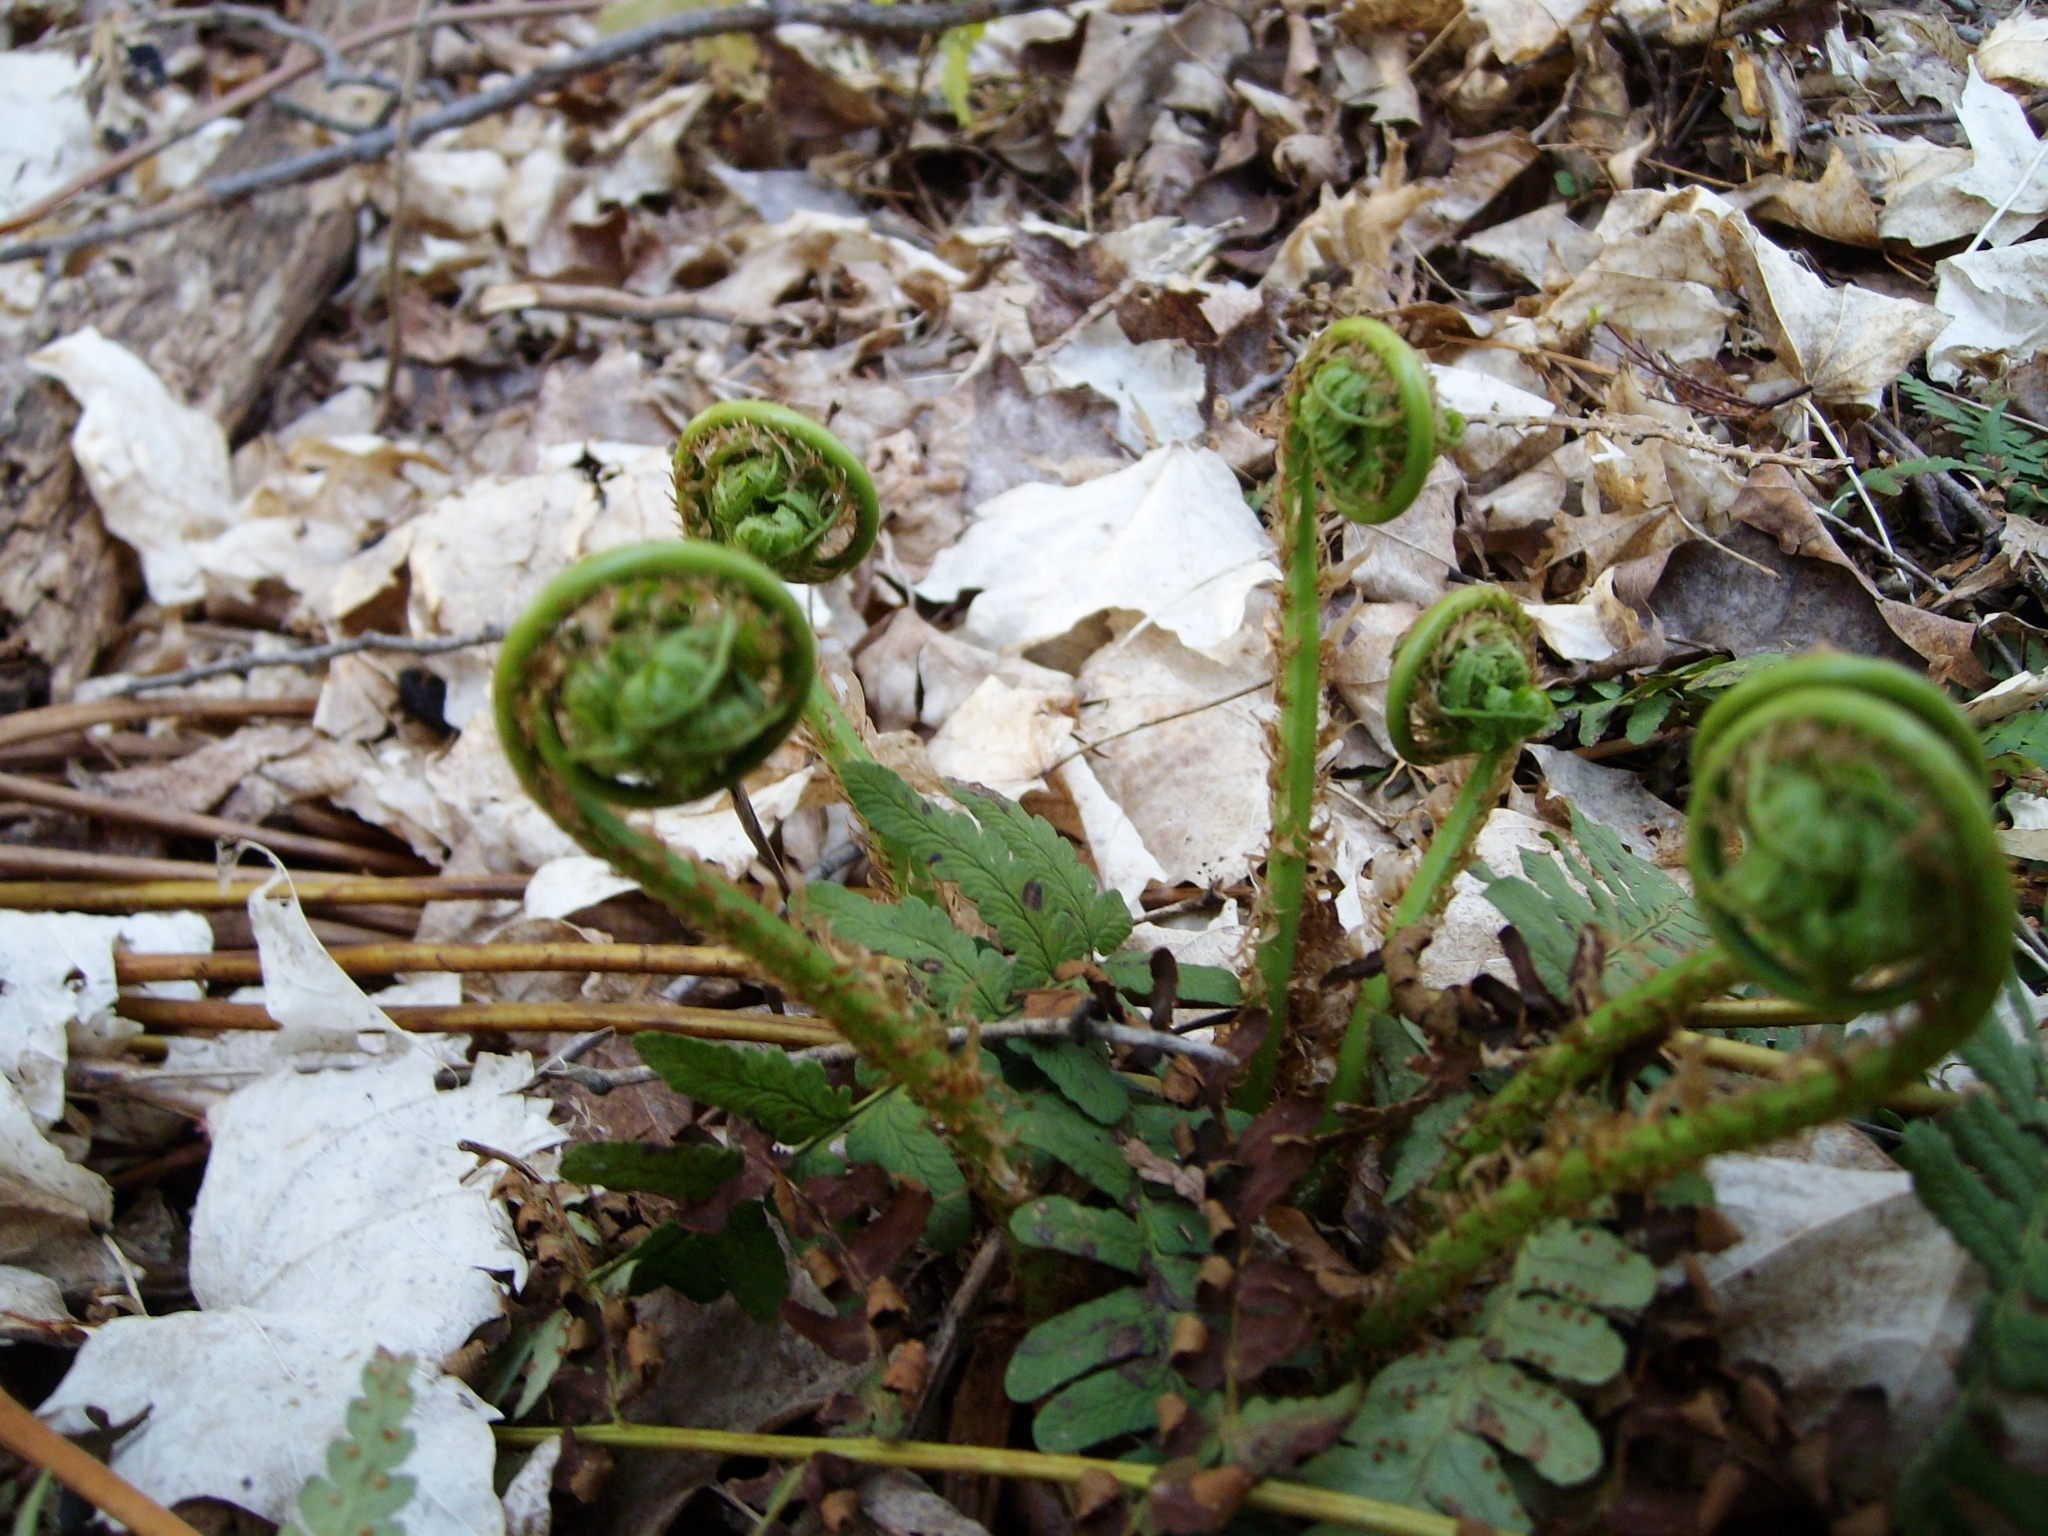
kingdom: Plantae
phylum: Tracheophyta
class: Polypodiopsida
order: Polypodiales
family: Dryopteridaceae
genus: Dryopteris
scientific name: Dryopteris marginalis
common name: Marginal wood fern
